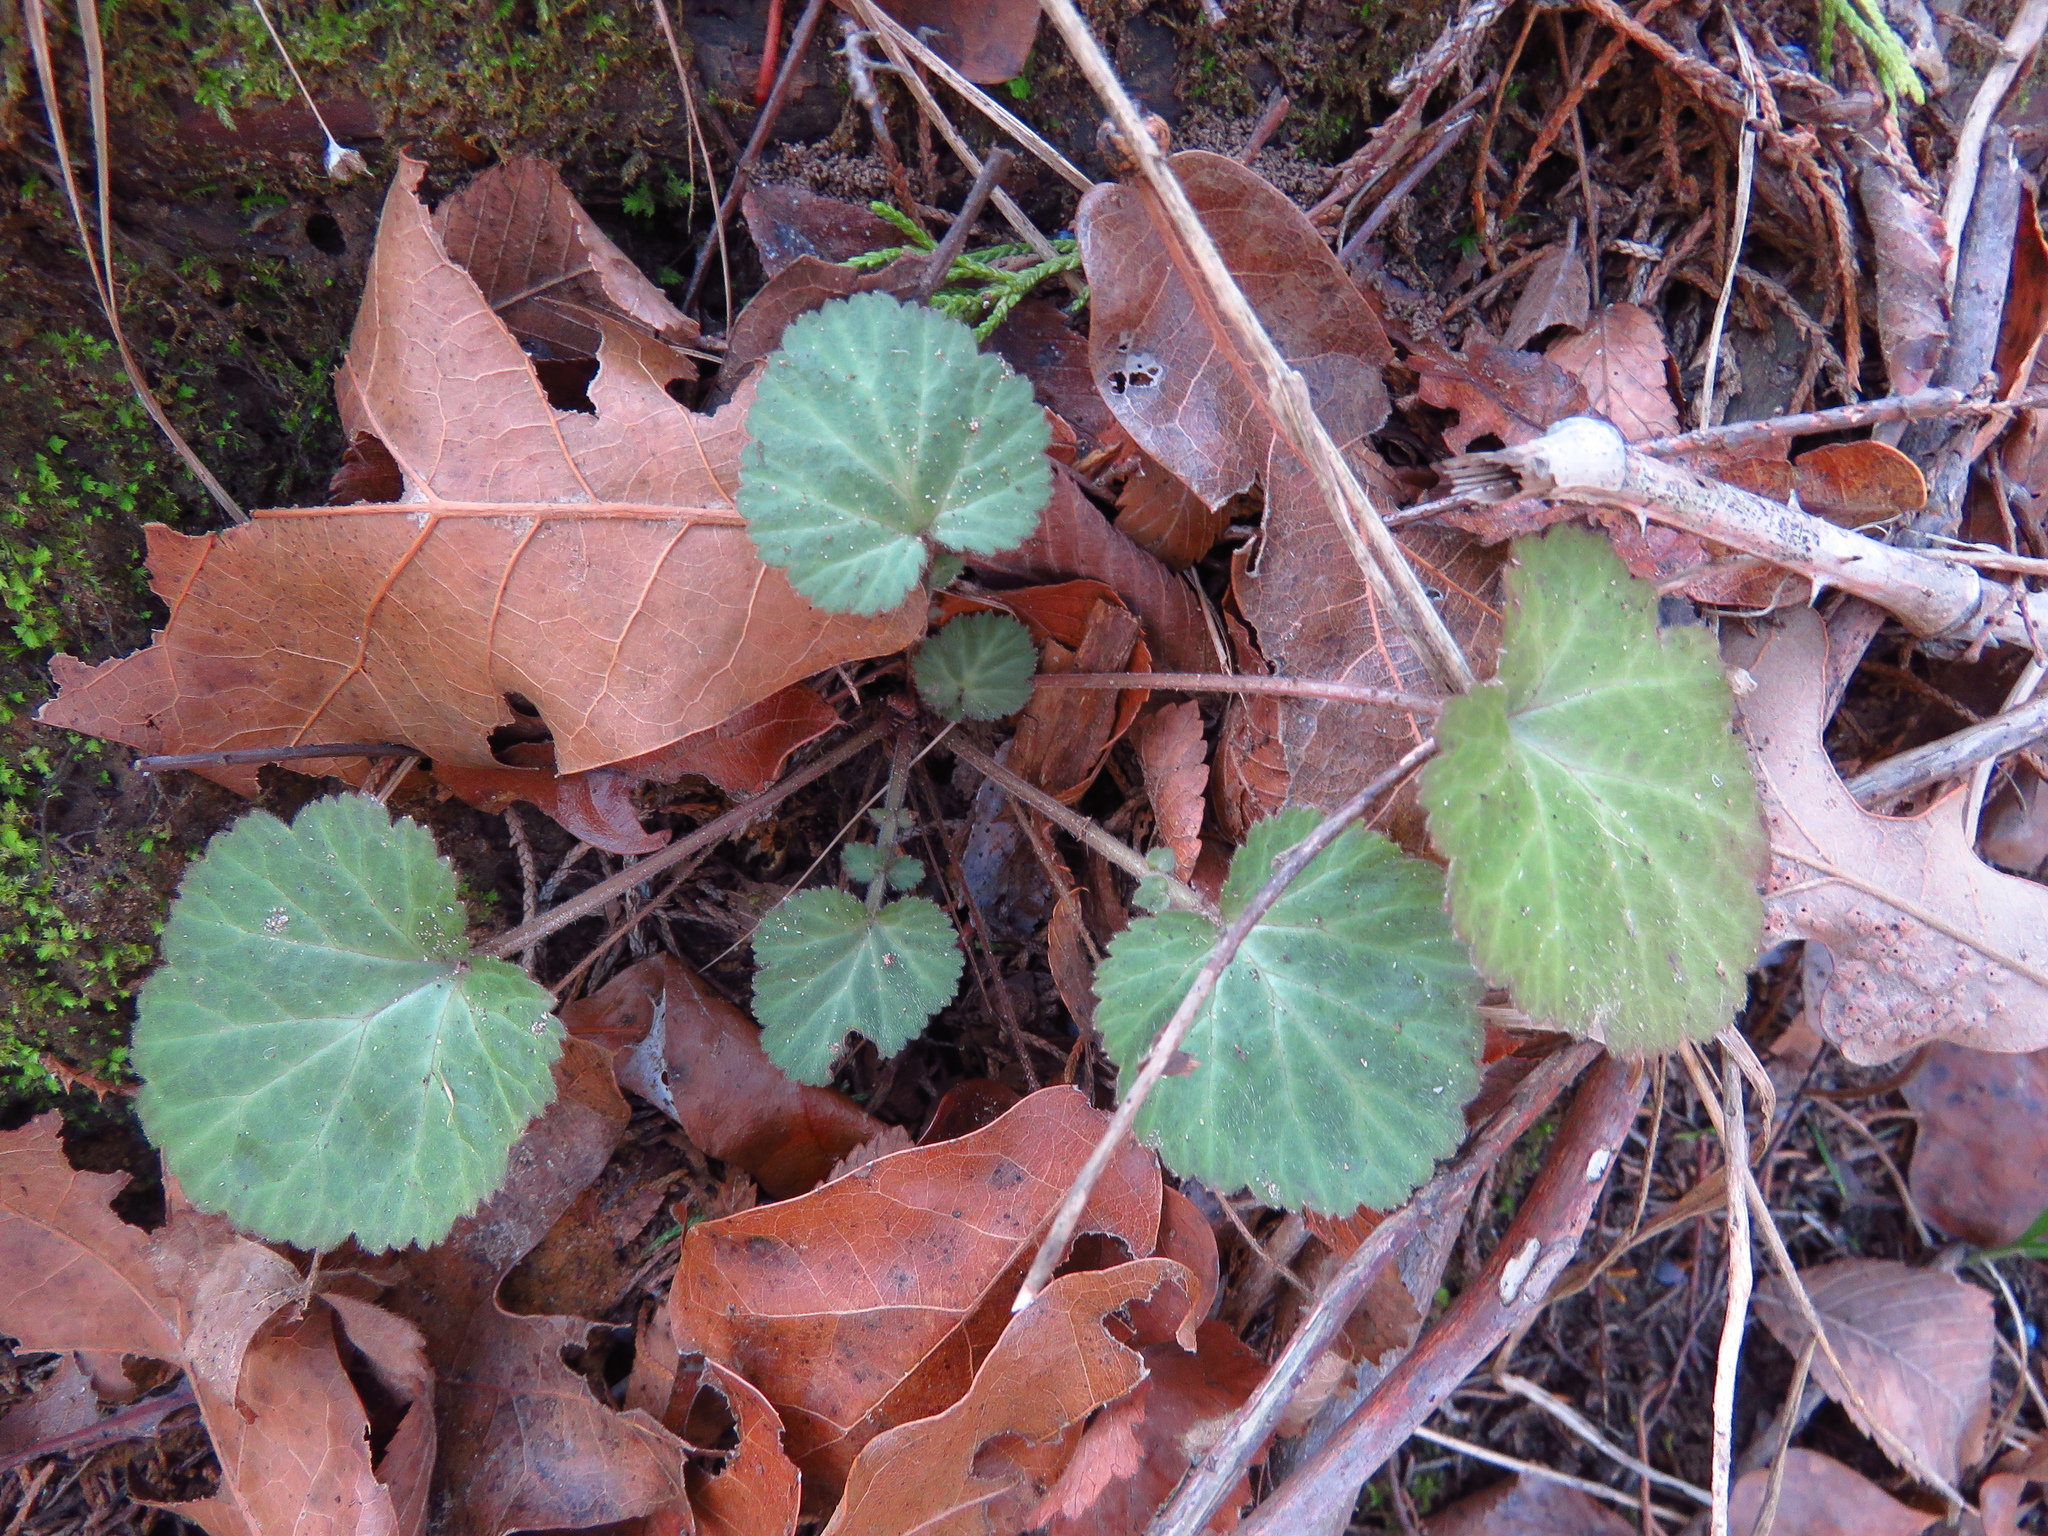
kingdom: Plantae
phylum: Tracheophyta
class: Magnoliopsida
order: Rosales
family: Rosaceae
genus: Geum
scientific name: Geum canadense
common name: White avens
